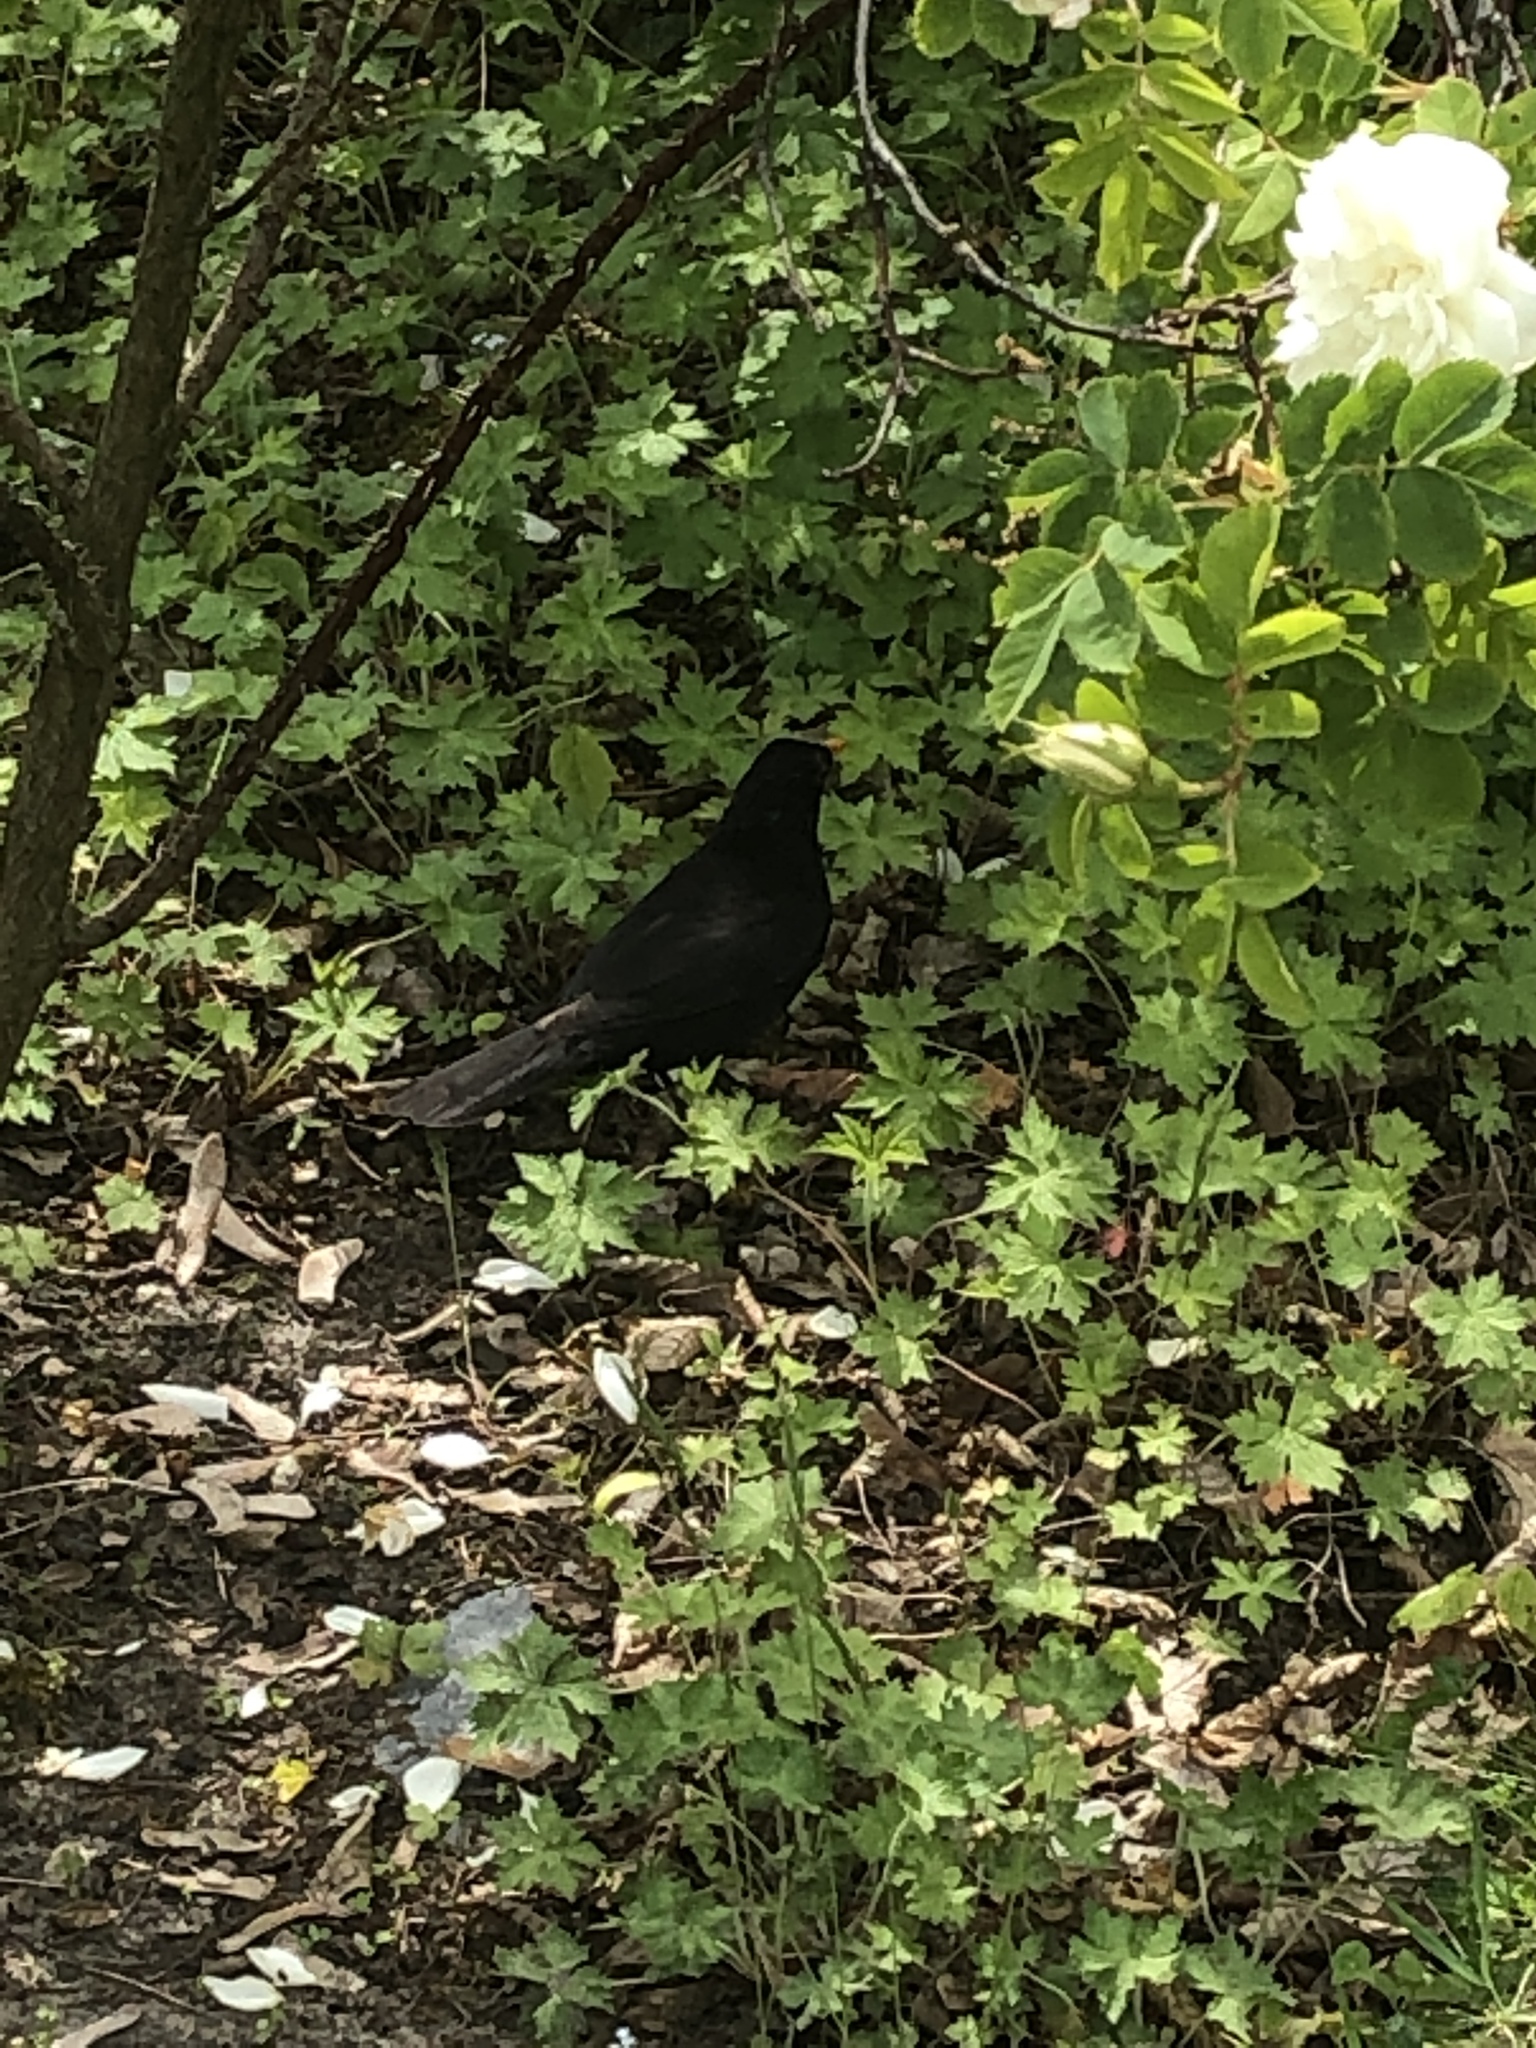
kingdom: Animalia
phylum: Chordata
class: Aves
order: Passeriformes
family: Turdidae
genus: Turdus
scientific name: Turdus merula
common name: Common blackbird
